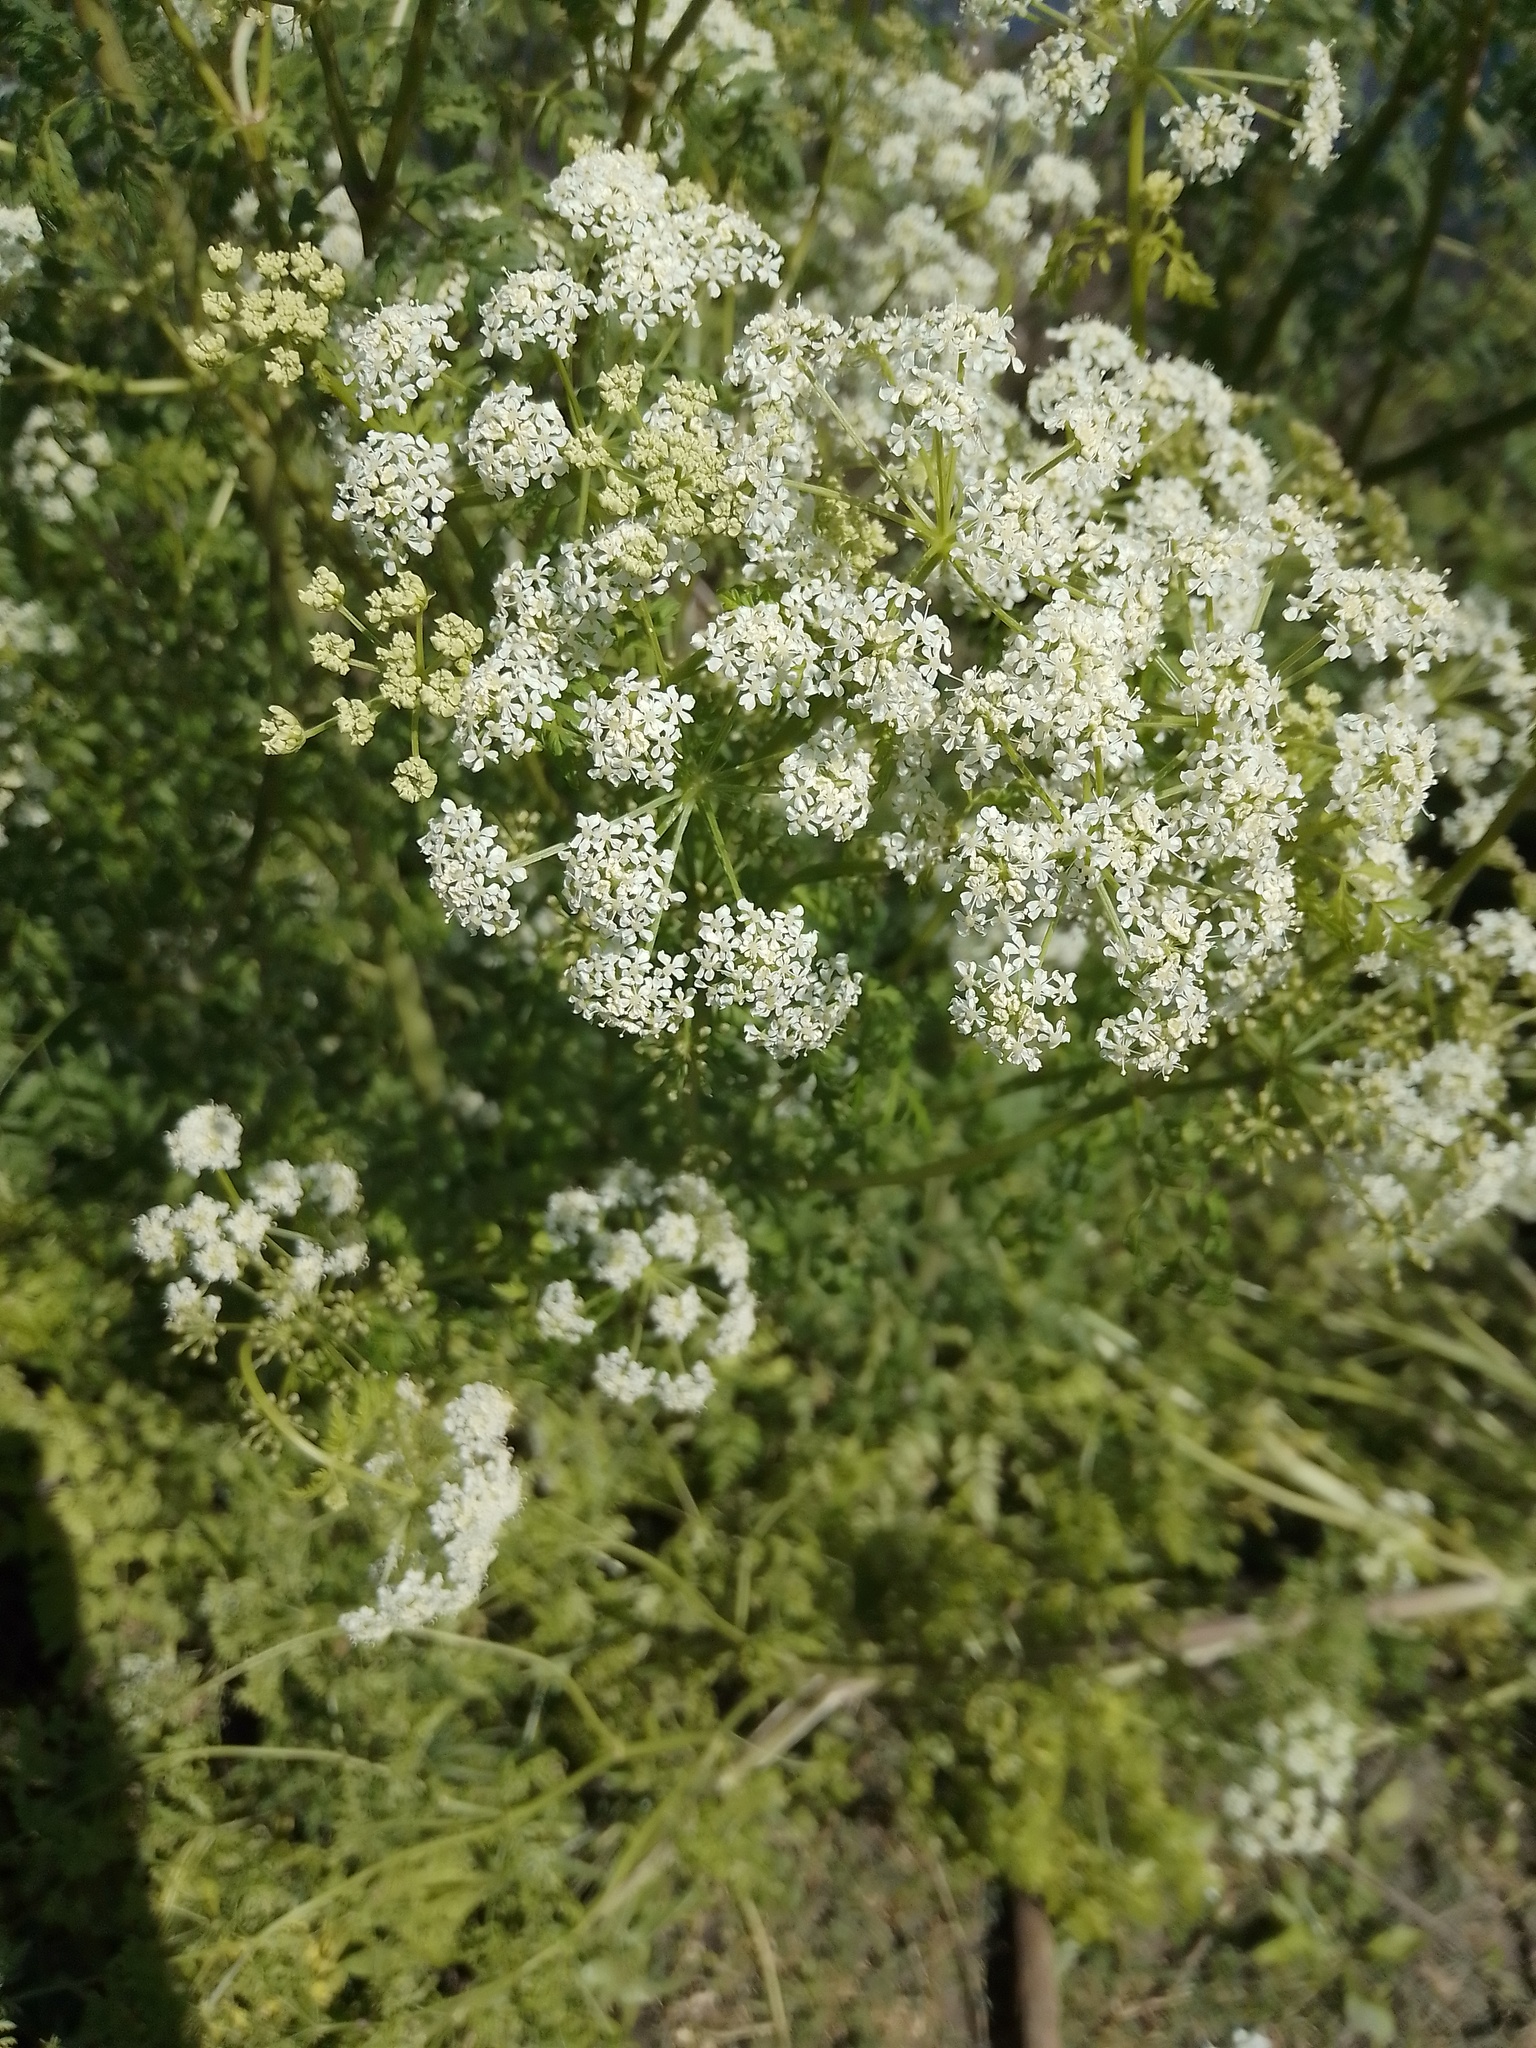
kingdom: Plantae
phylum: Tracheophyta
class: Magnoliopsida
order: Apiales
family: Apiaceae
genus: Conium
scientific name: Conium maculatum
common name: Hemlock
